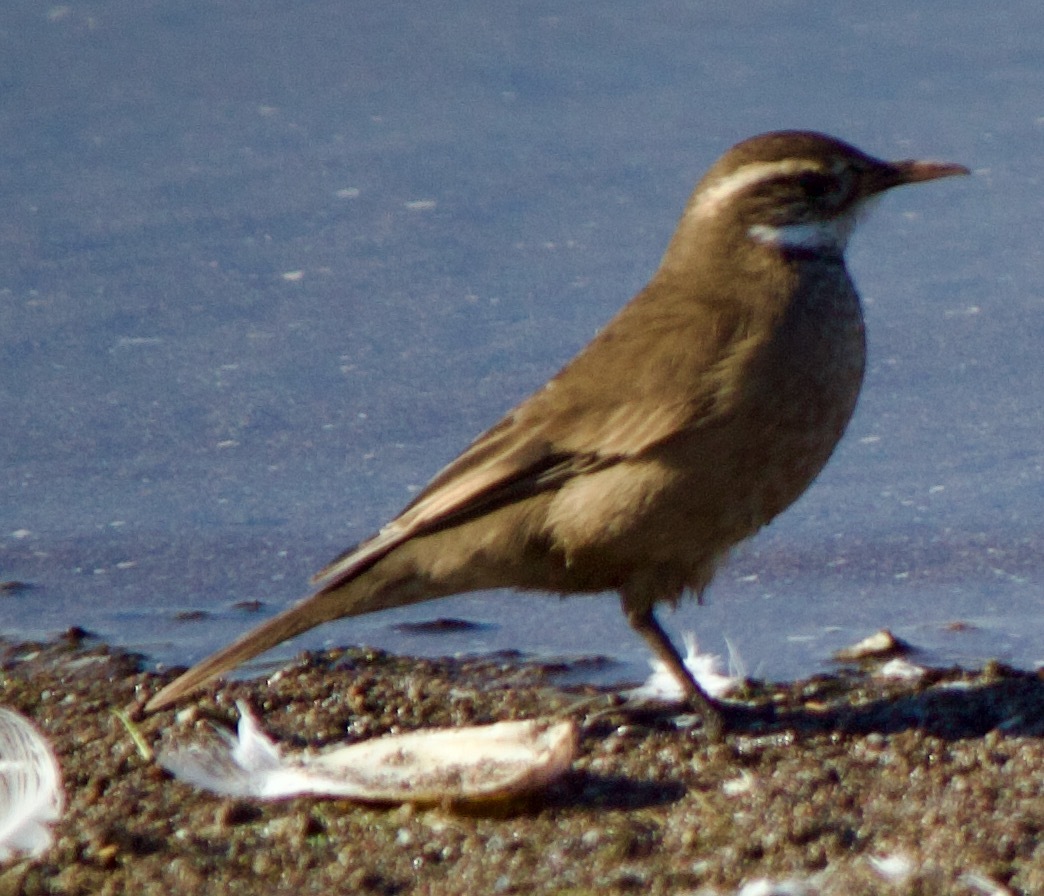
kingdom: Animalia
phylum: Chordata
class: Aves
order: Passeriformes
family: Furnariidae
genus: Cinclodes
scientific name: Cinclodes fuscus
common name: Buff-winged cinclodes
